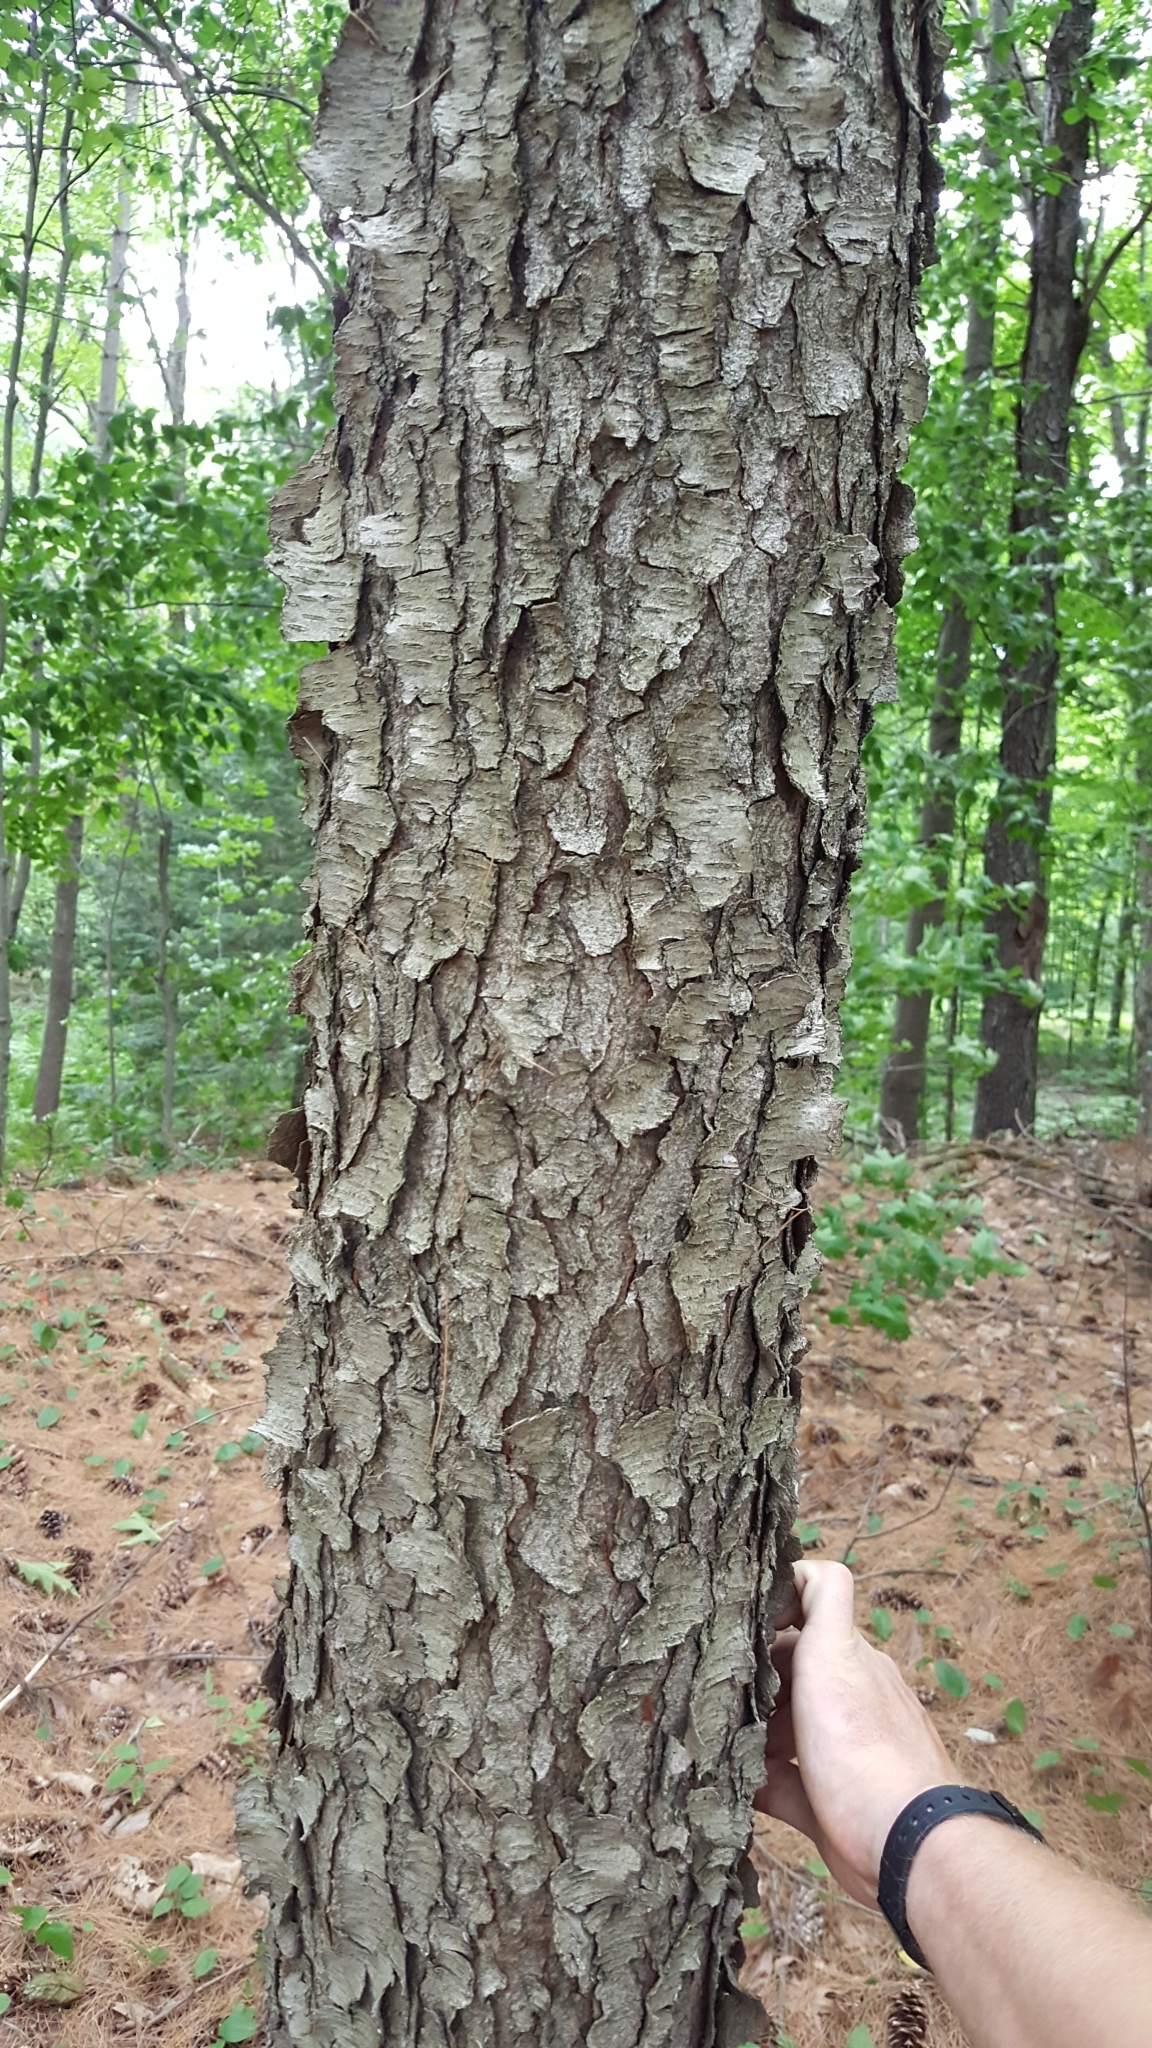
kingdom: Plantae
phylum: Tracheophyta
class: Magnoliopsida
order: Rosales
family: Rosaceae
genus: Prunus
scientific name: Prunus serotina
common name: Black cherry
